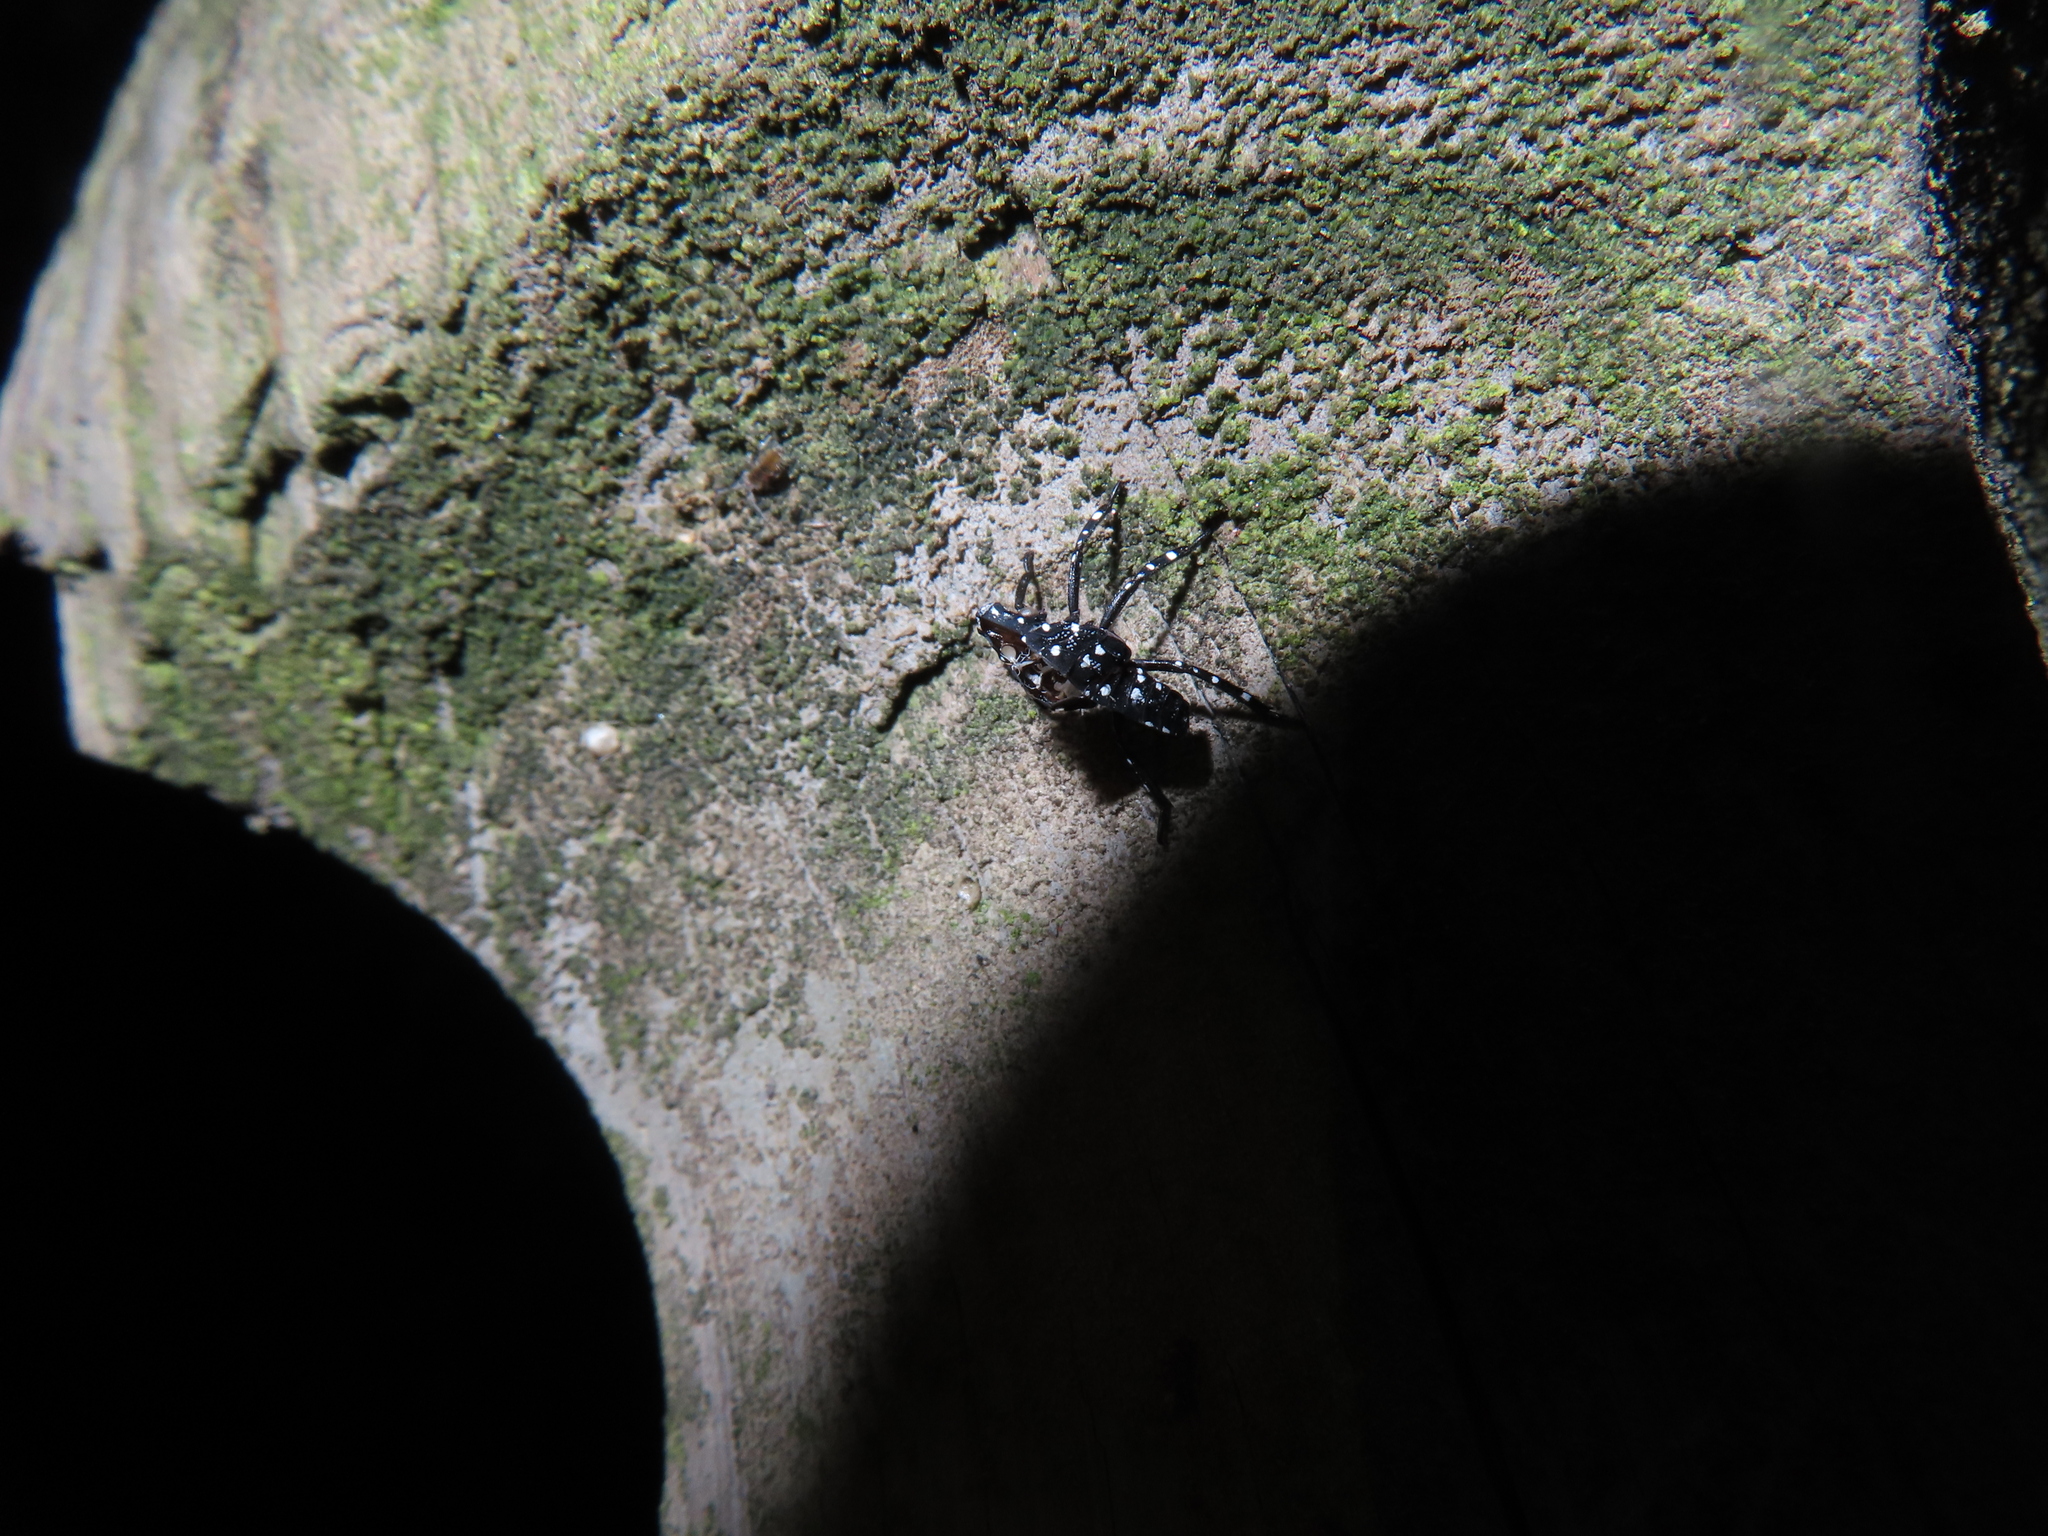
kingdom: Animalia
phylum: Arthropoda
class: Insecta
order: Hemiptera
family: Fulgoridae
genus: Lycorma
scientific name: Lycorma delicatula
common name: Spotted lanternfly
